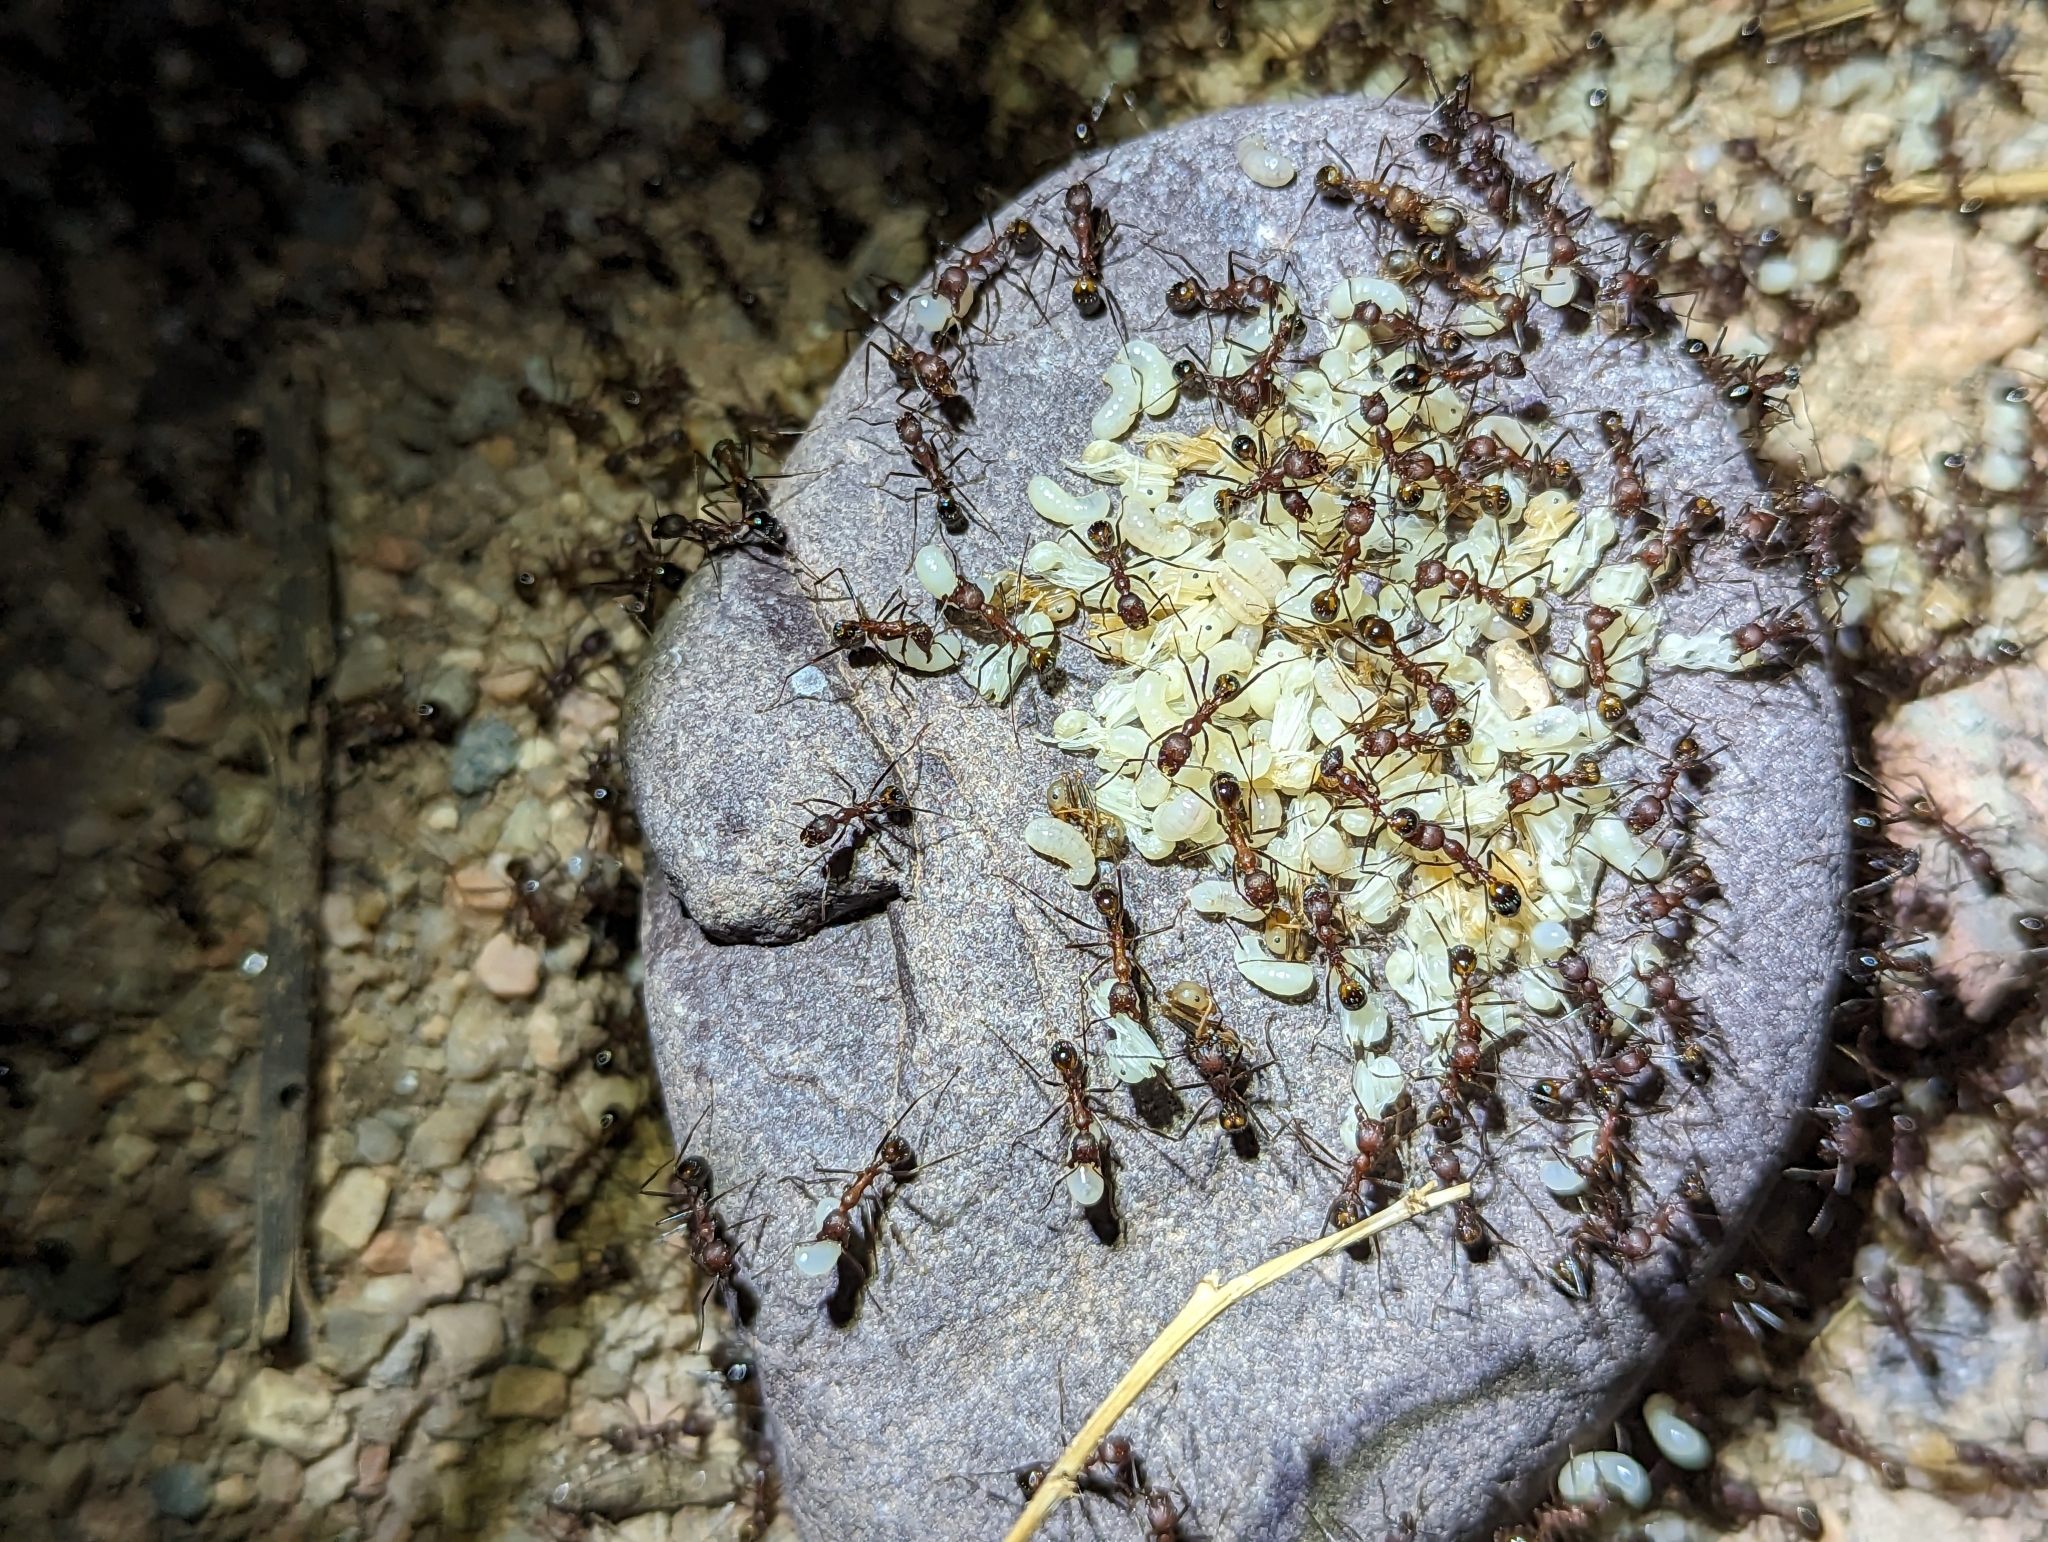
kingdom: Animalia
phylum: Arthropoda
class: Insecta
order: Hymenoptera
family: Formicidae
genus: Novomessor
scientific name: Novomessor albisetosa
